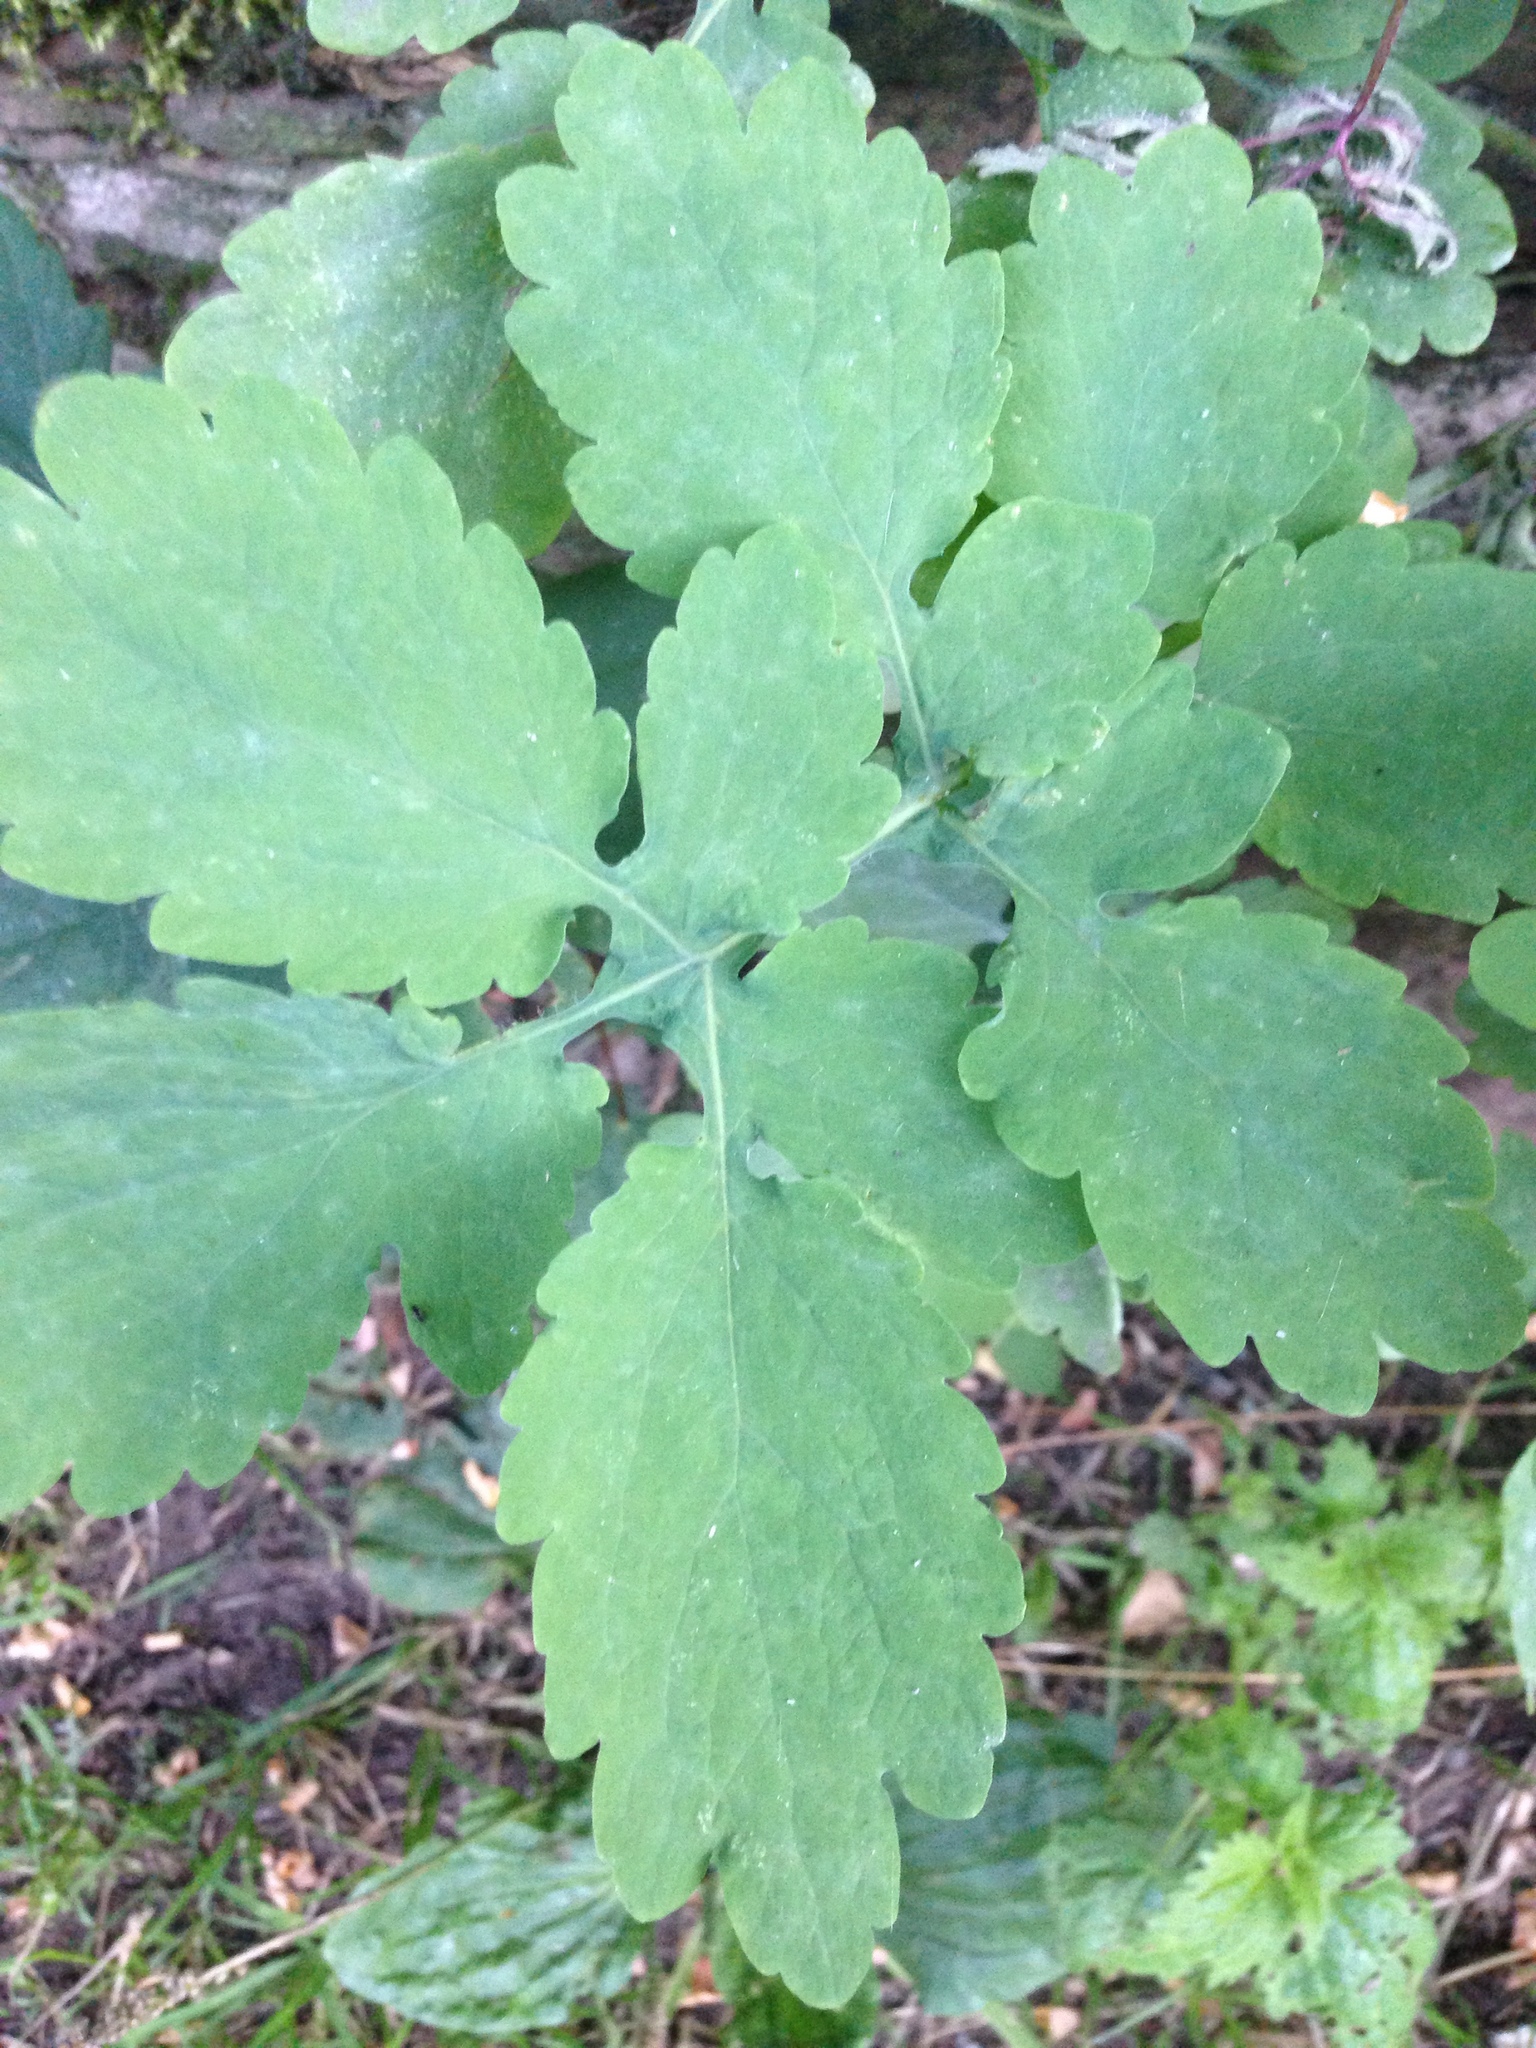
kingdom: Plantae
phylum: Tracheophyta
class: Magnoliopsida
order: Ranunculales
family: Papaveraceae
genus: Chelidonium
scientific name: Chelidonium majus
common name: Greater celandine
